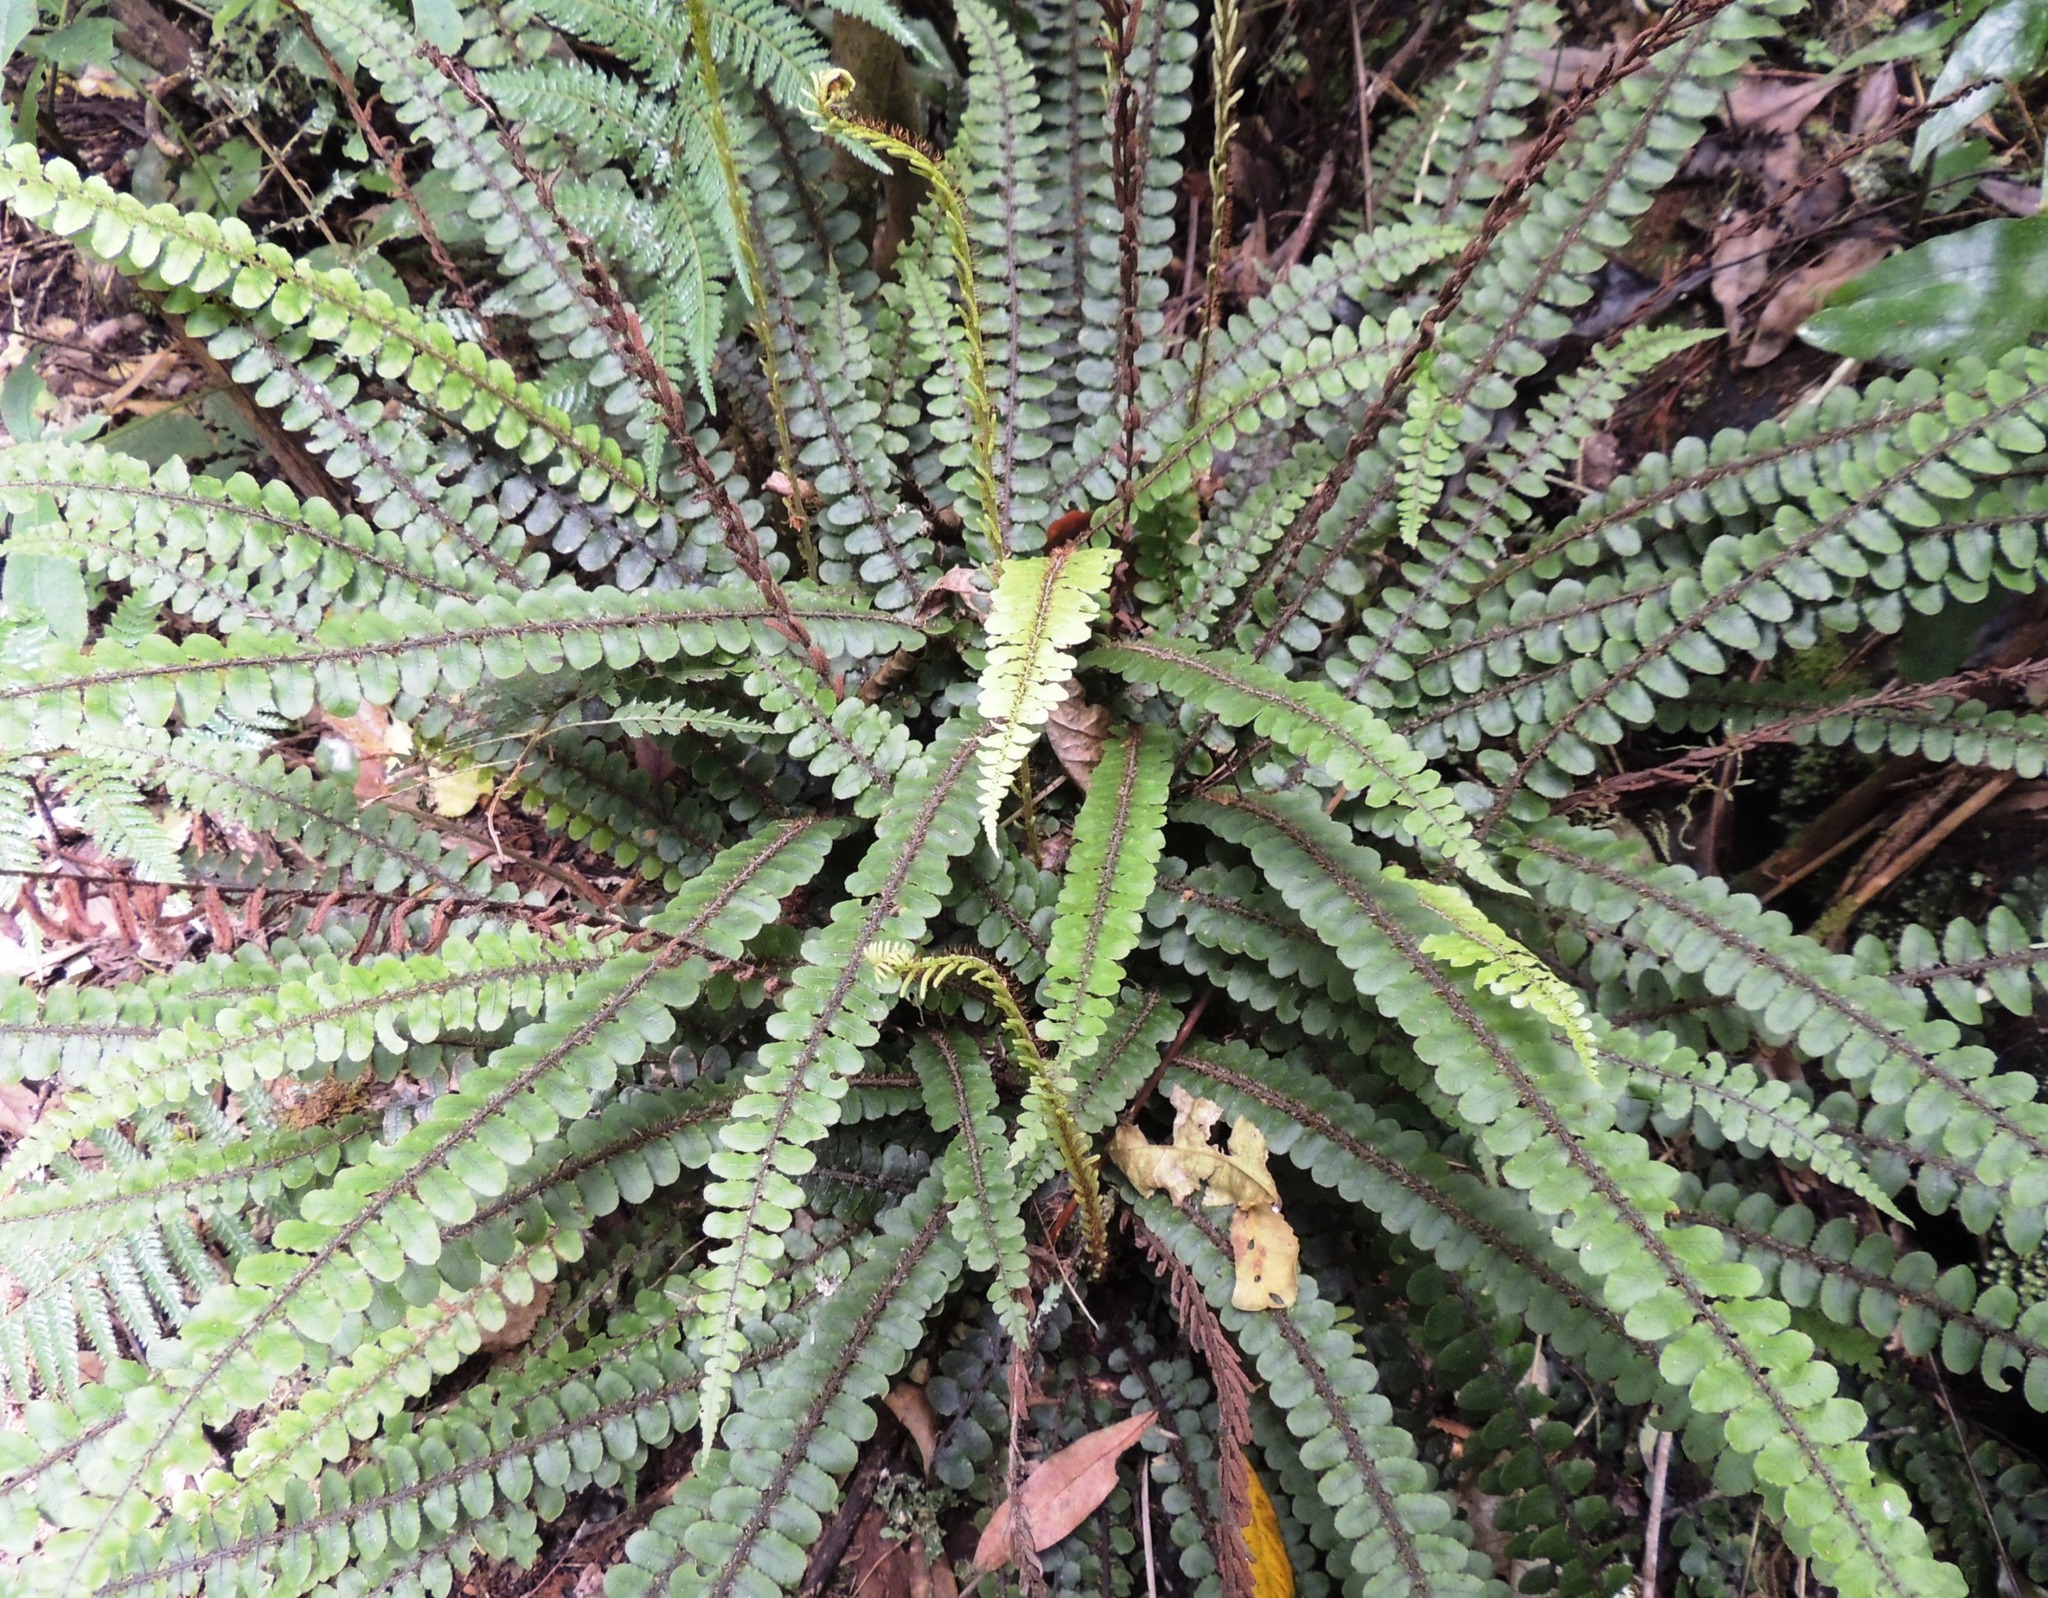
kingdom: Plantae
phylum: Tracheophyta
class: Polypodiopsida
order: Polypodiales
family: Blechnaceae
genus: Cranfillia
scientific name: Cranfillia fluviatilis
